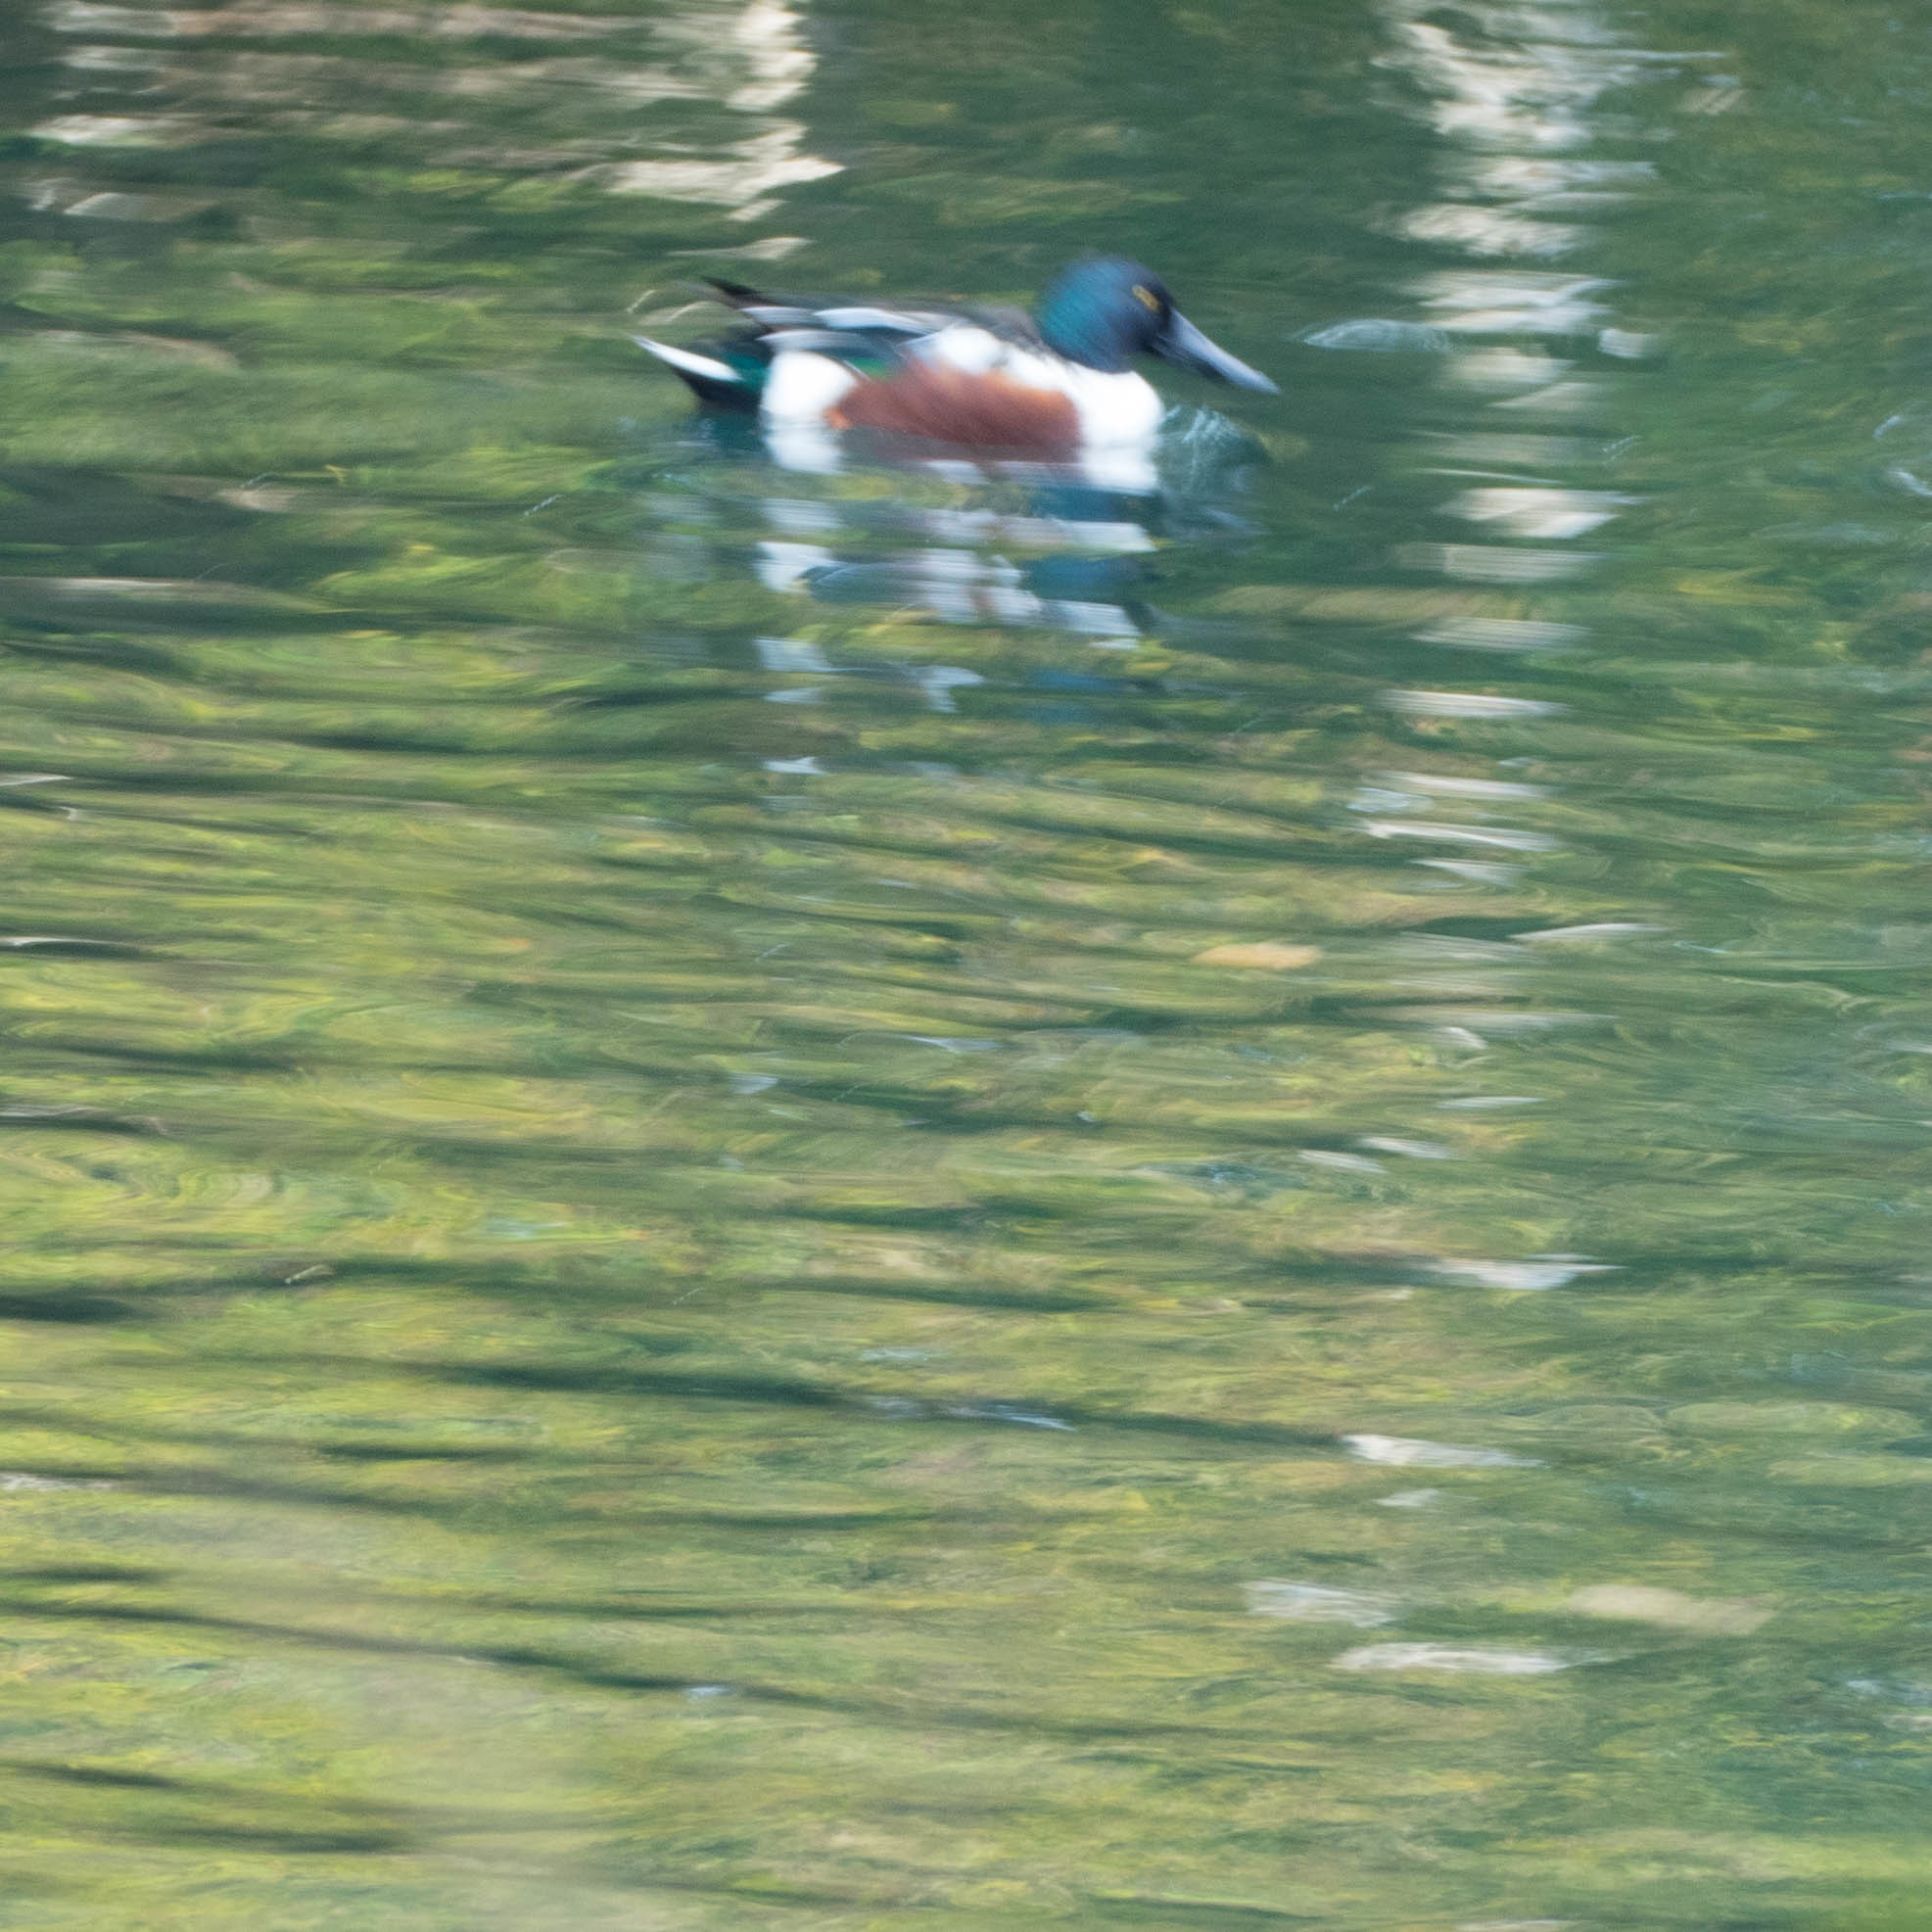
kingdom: Animalia
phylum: Chordata
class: Aves
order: Anseriformes
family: Anatidae
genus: Spatula
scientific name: Spatula clypeata
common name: Northern shoveler
